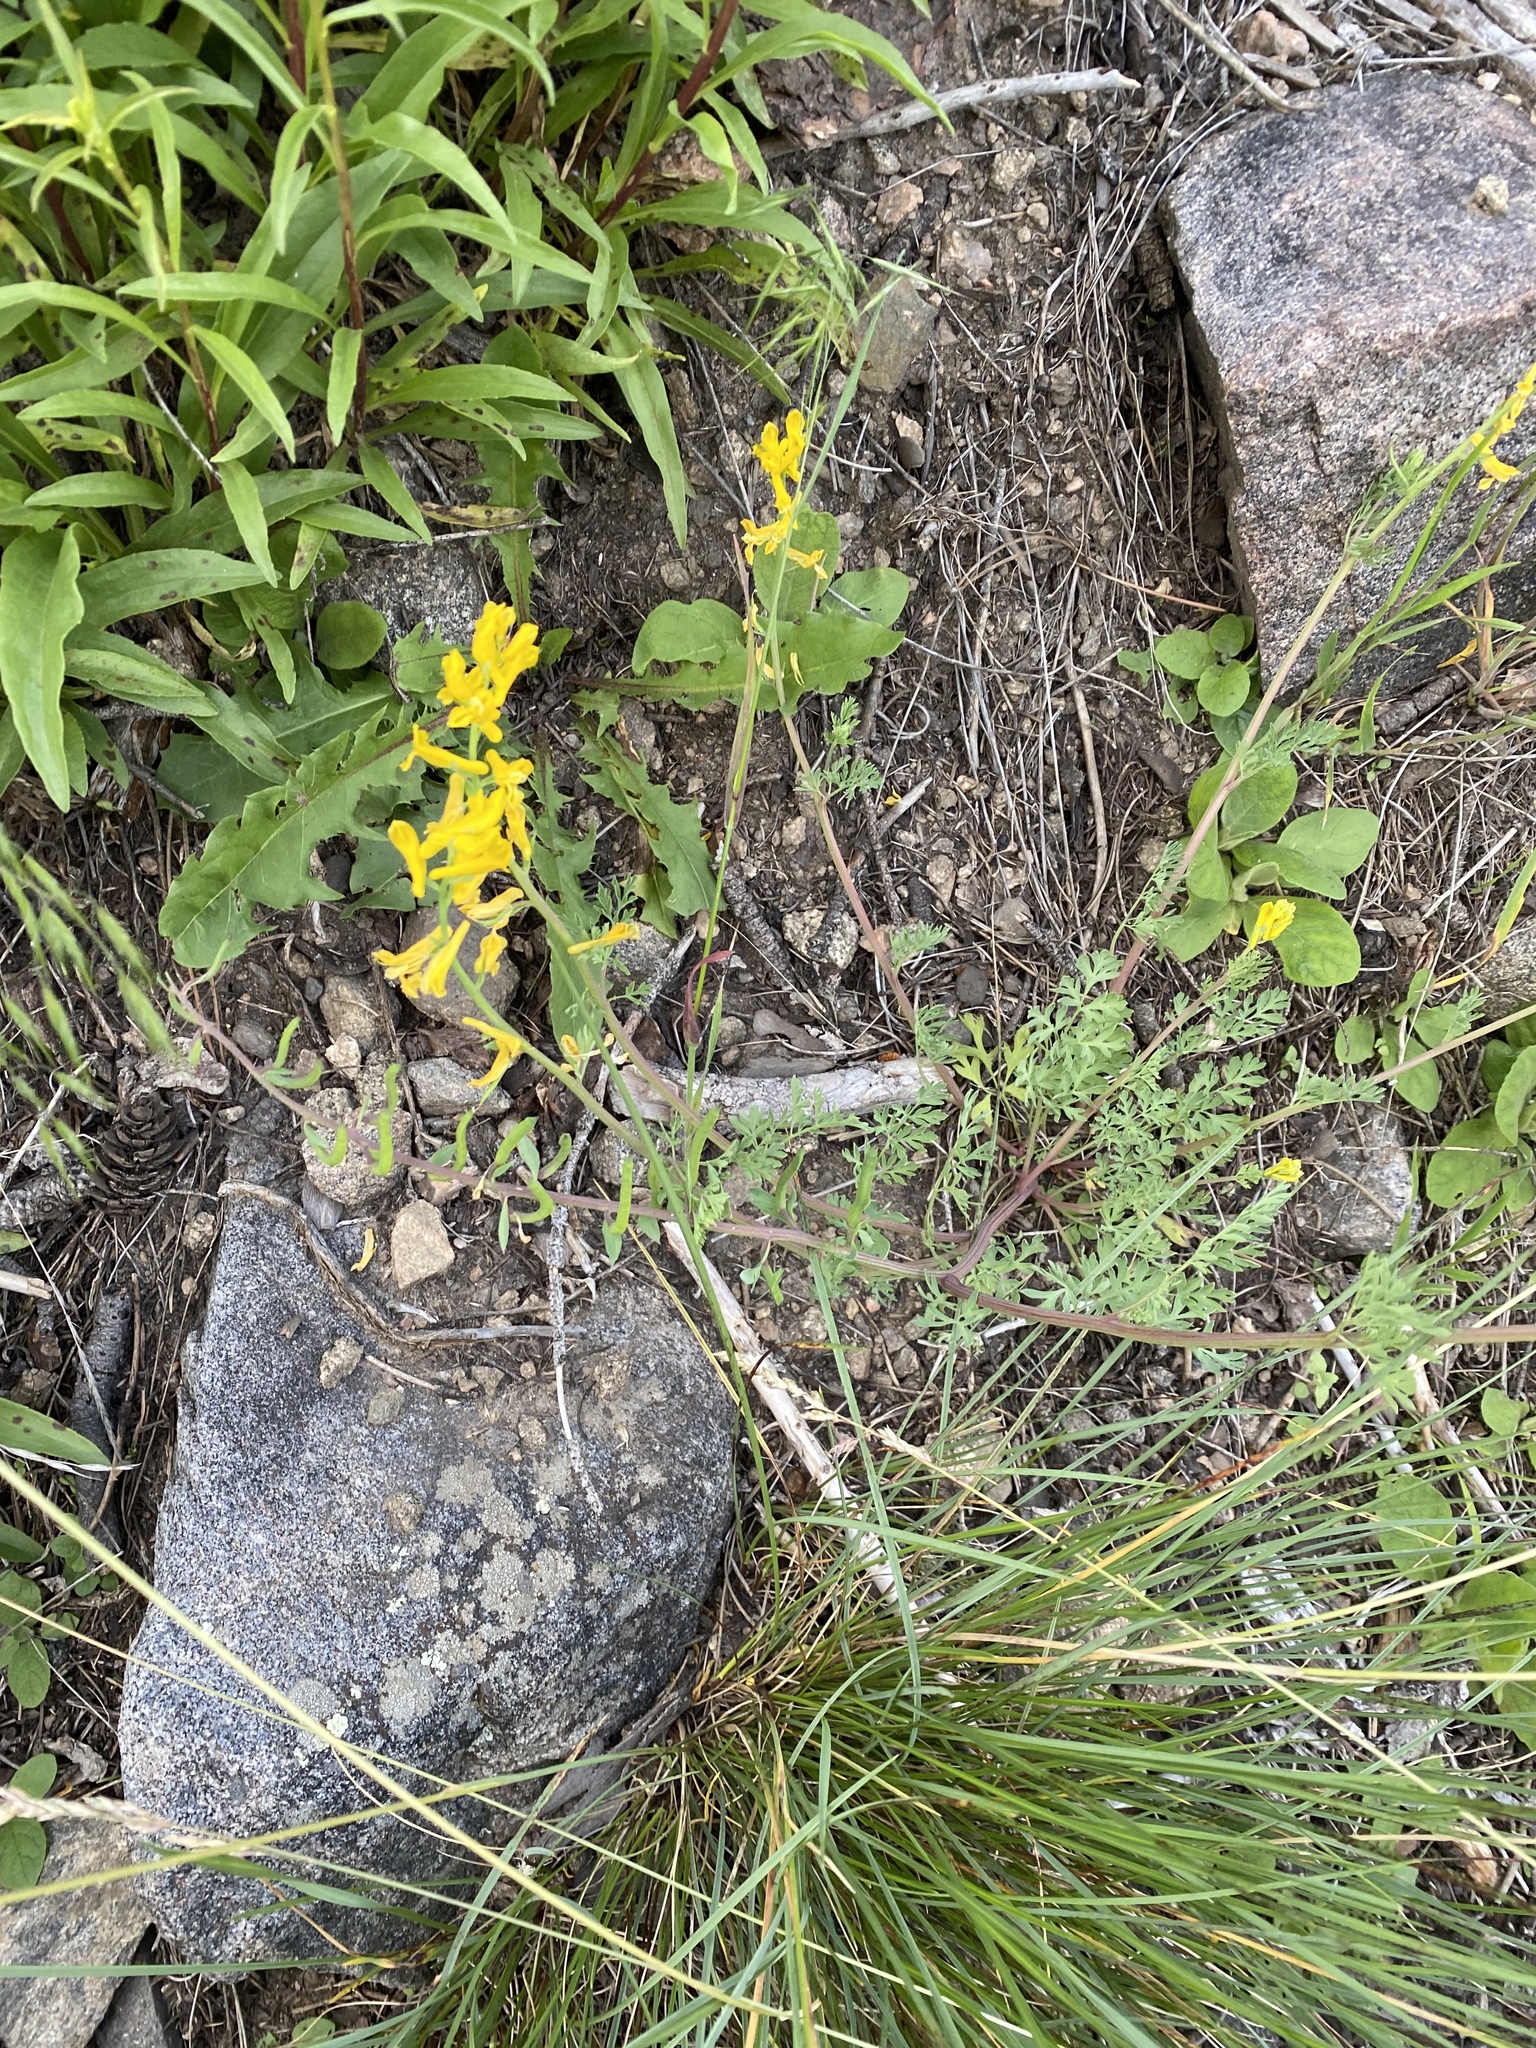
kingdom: Plantae
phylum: Tracheophyta
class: Magnoliopsida
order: Ranunculales
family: Papaveraceae
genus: Corydalis
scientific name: Corydalis aurea
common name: Golden corydalis
